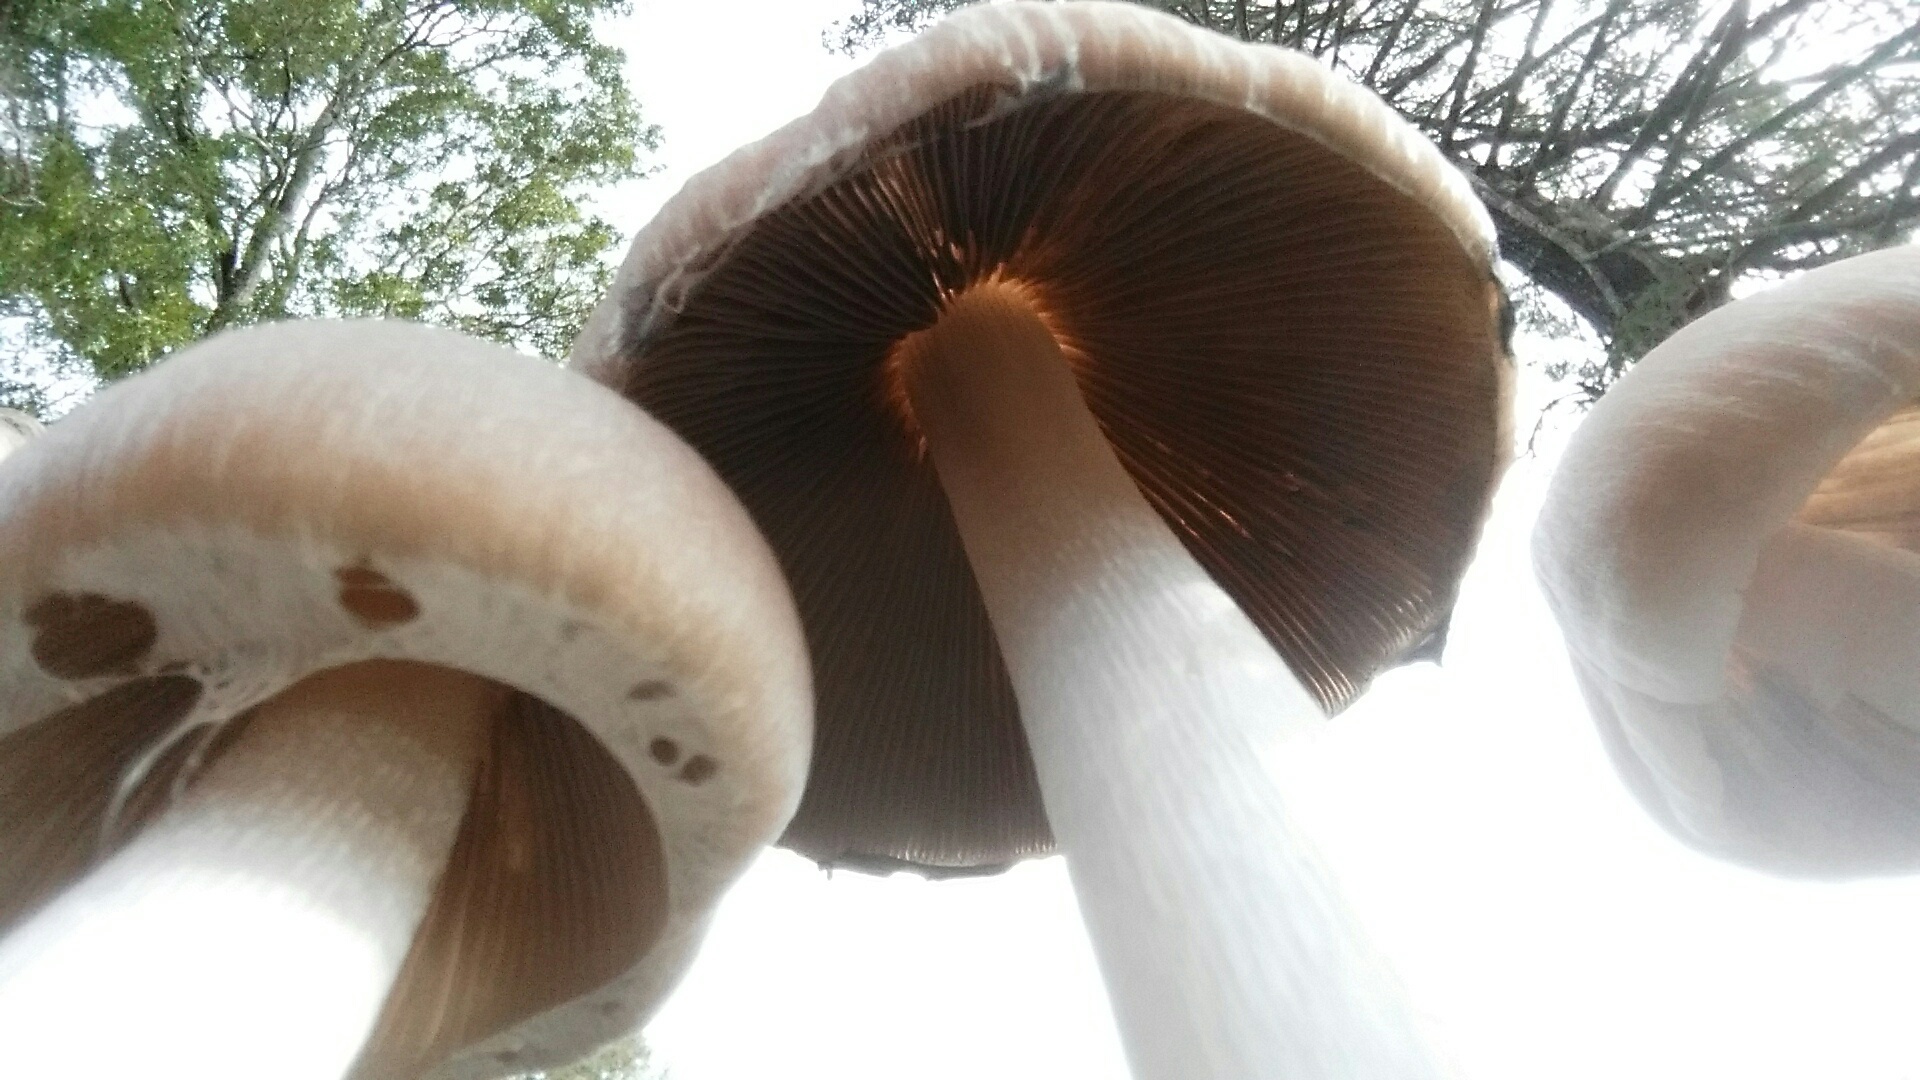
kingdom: Fungi
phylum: Basidiomycota
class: Agaricomycetes
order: Agaricales
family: Psathyrellaceae
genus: Psathyrella
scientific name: Psathyrella longipes
